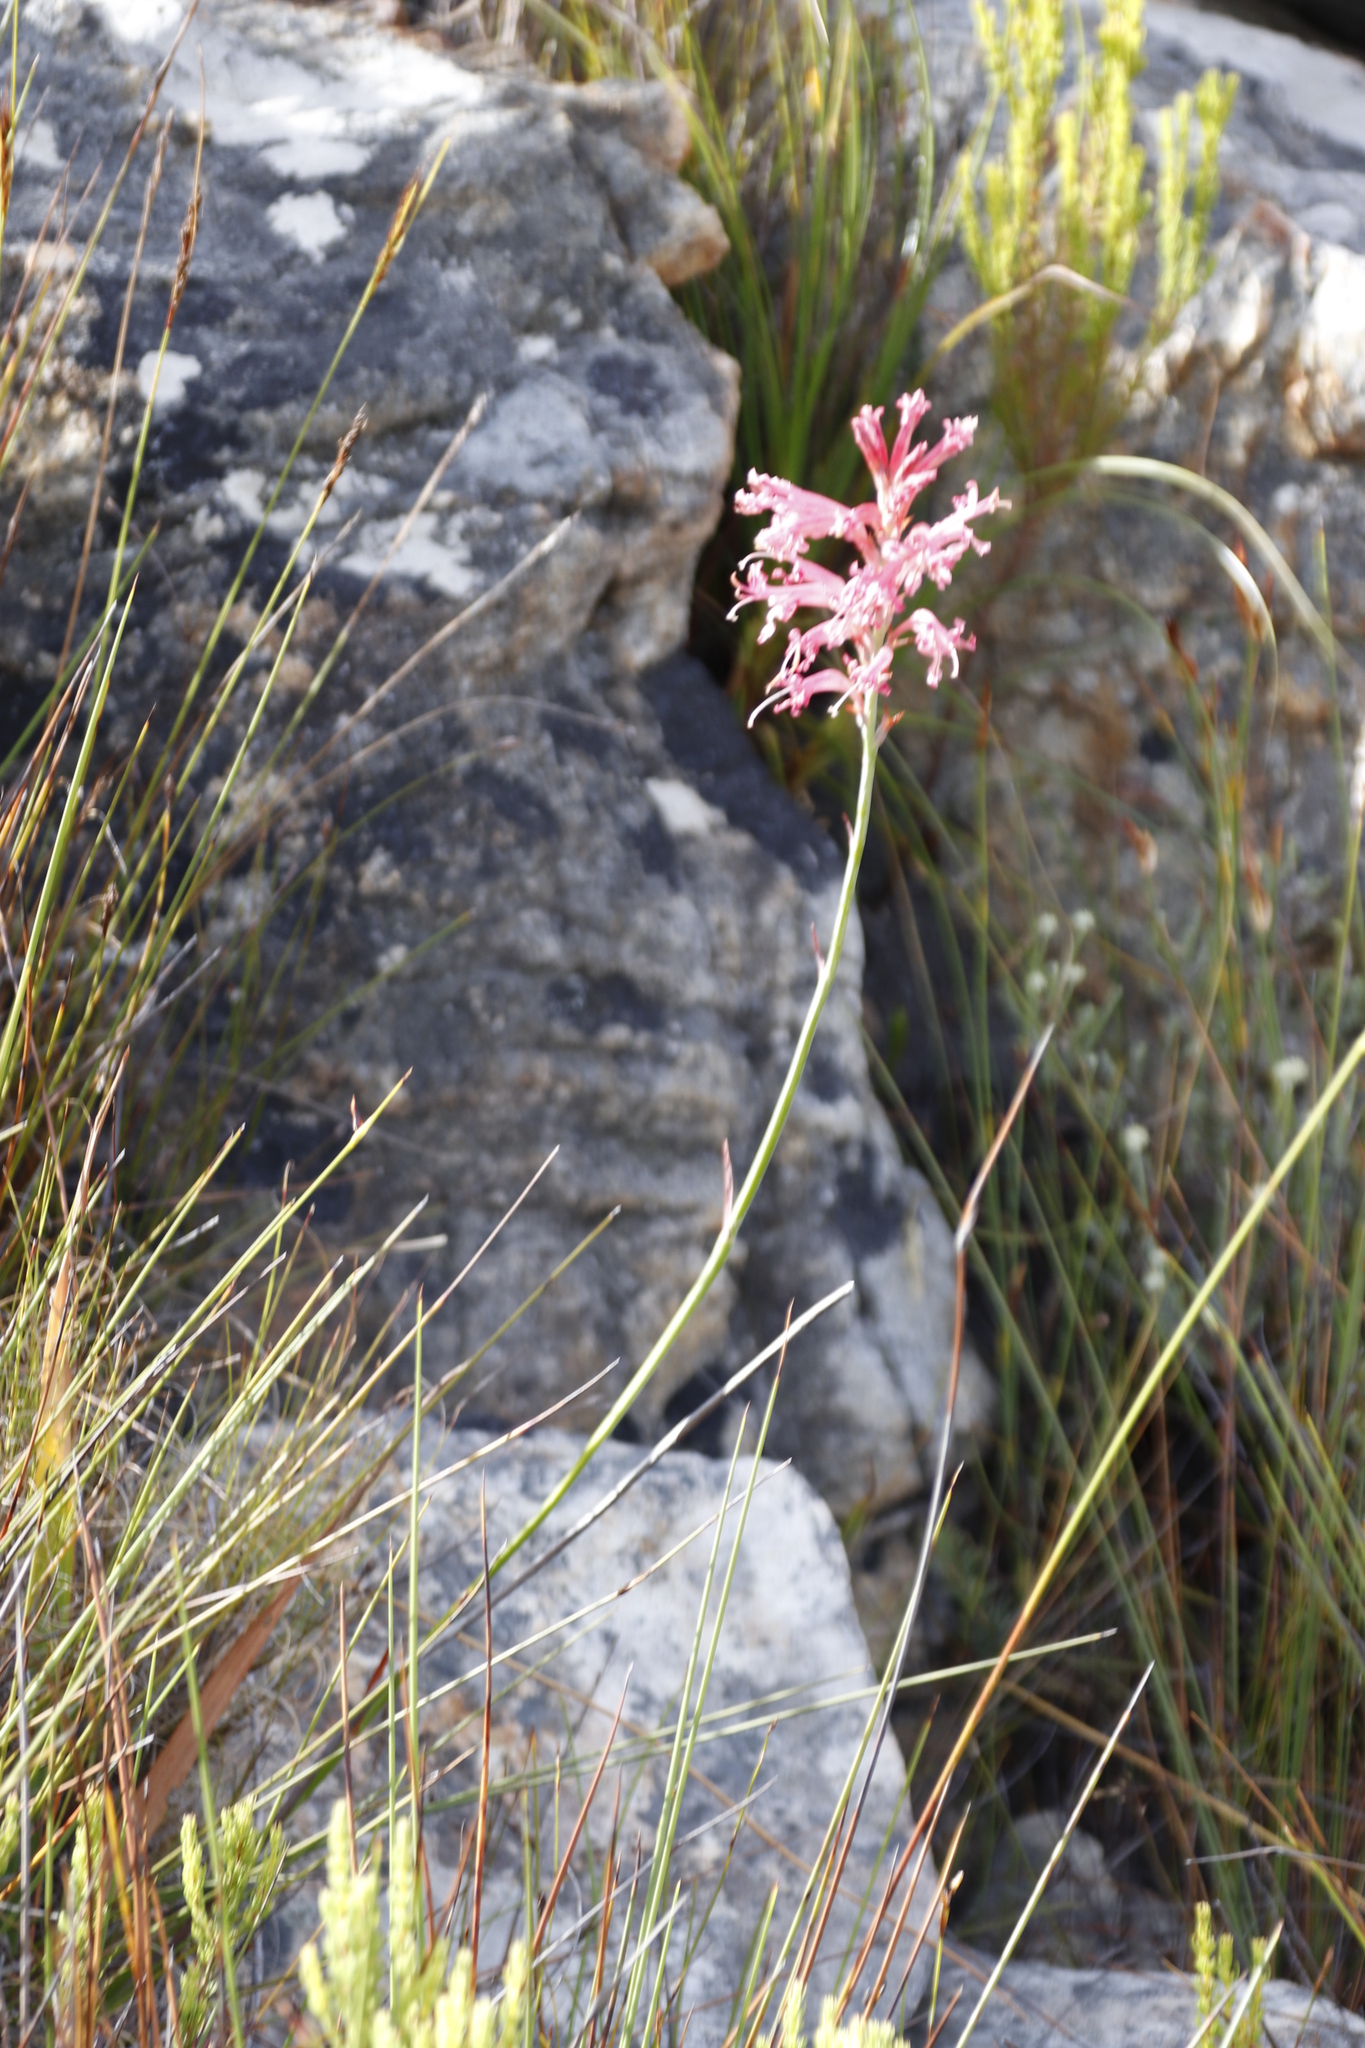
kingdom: Plantae
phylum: Tracheophyta
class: Liliopsida
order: Asparagales
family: Iridaceae
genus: Tritoniopsis
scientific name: Tritoniopsis antholyza
